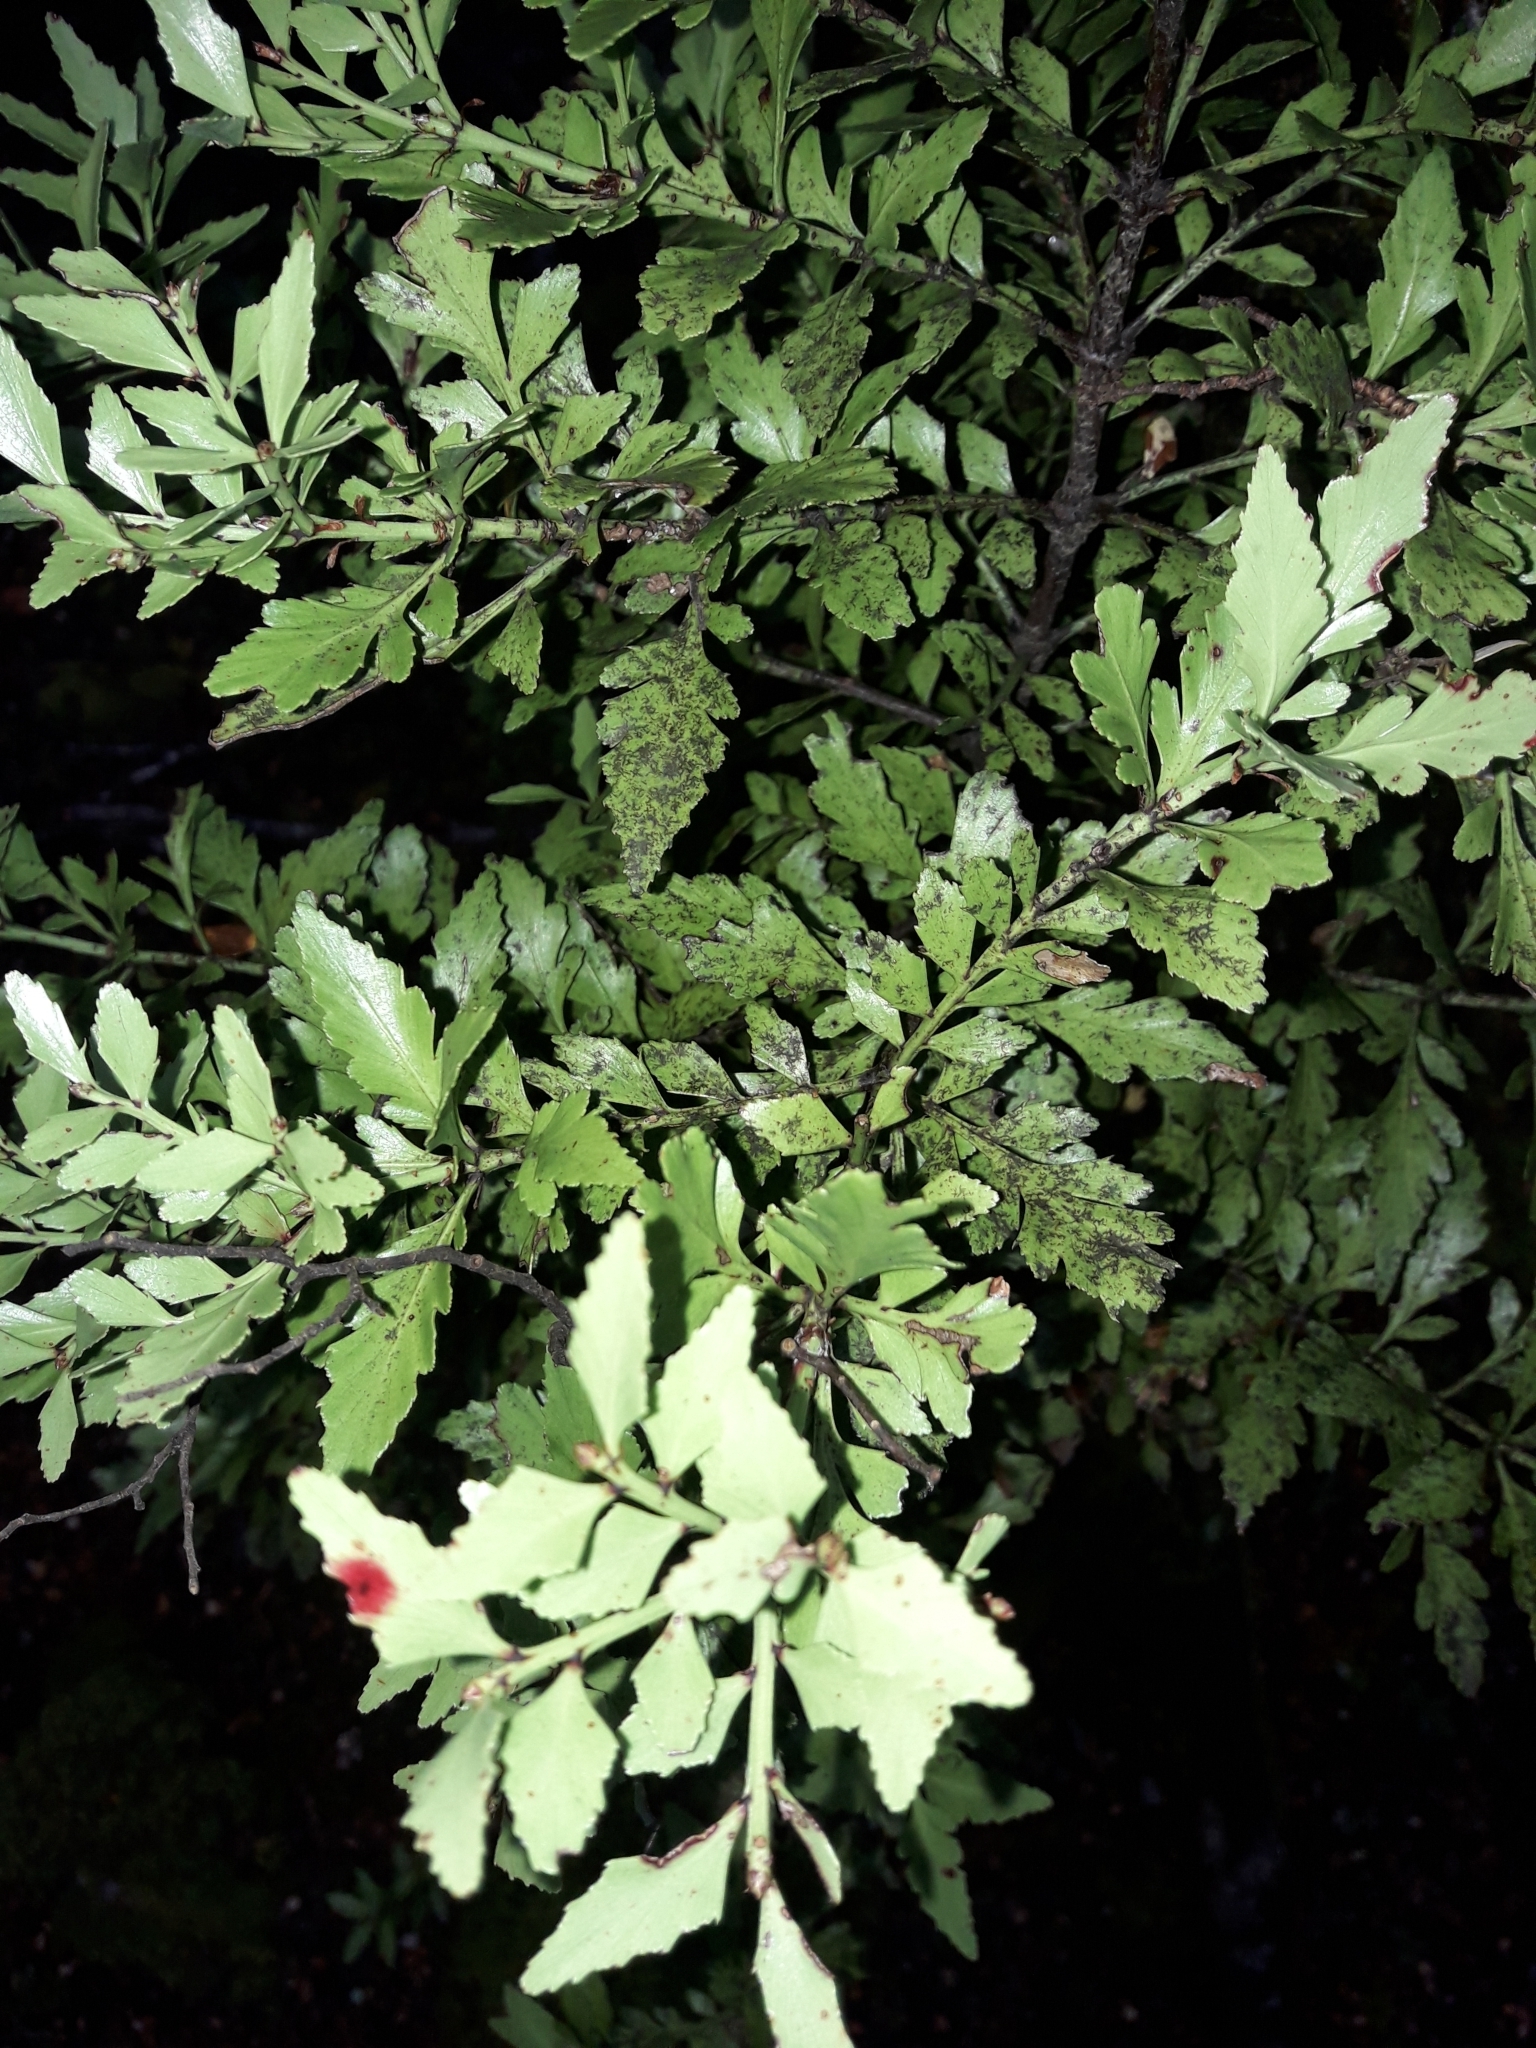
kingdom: Plantae
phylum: Tracheophyta
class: Pinopsida
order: Pinales
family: Phyllocladaceae
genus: Phyllocladus
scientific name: Phyllocladus trichomanoides
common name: Celery pine
